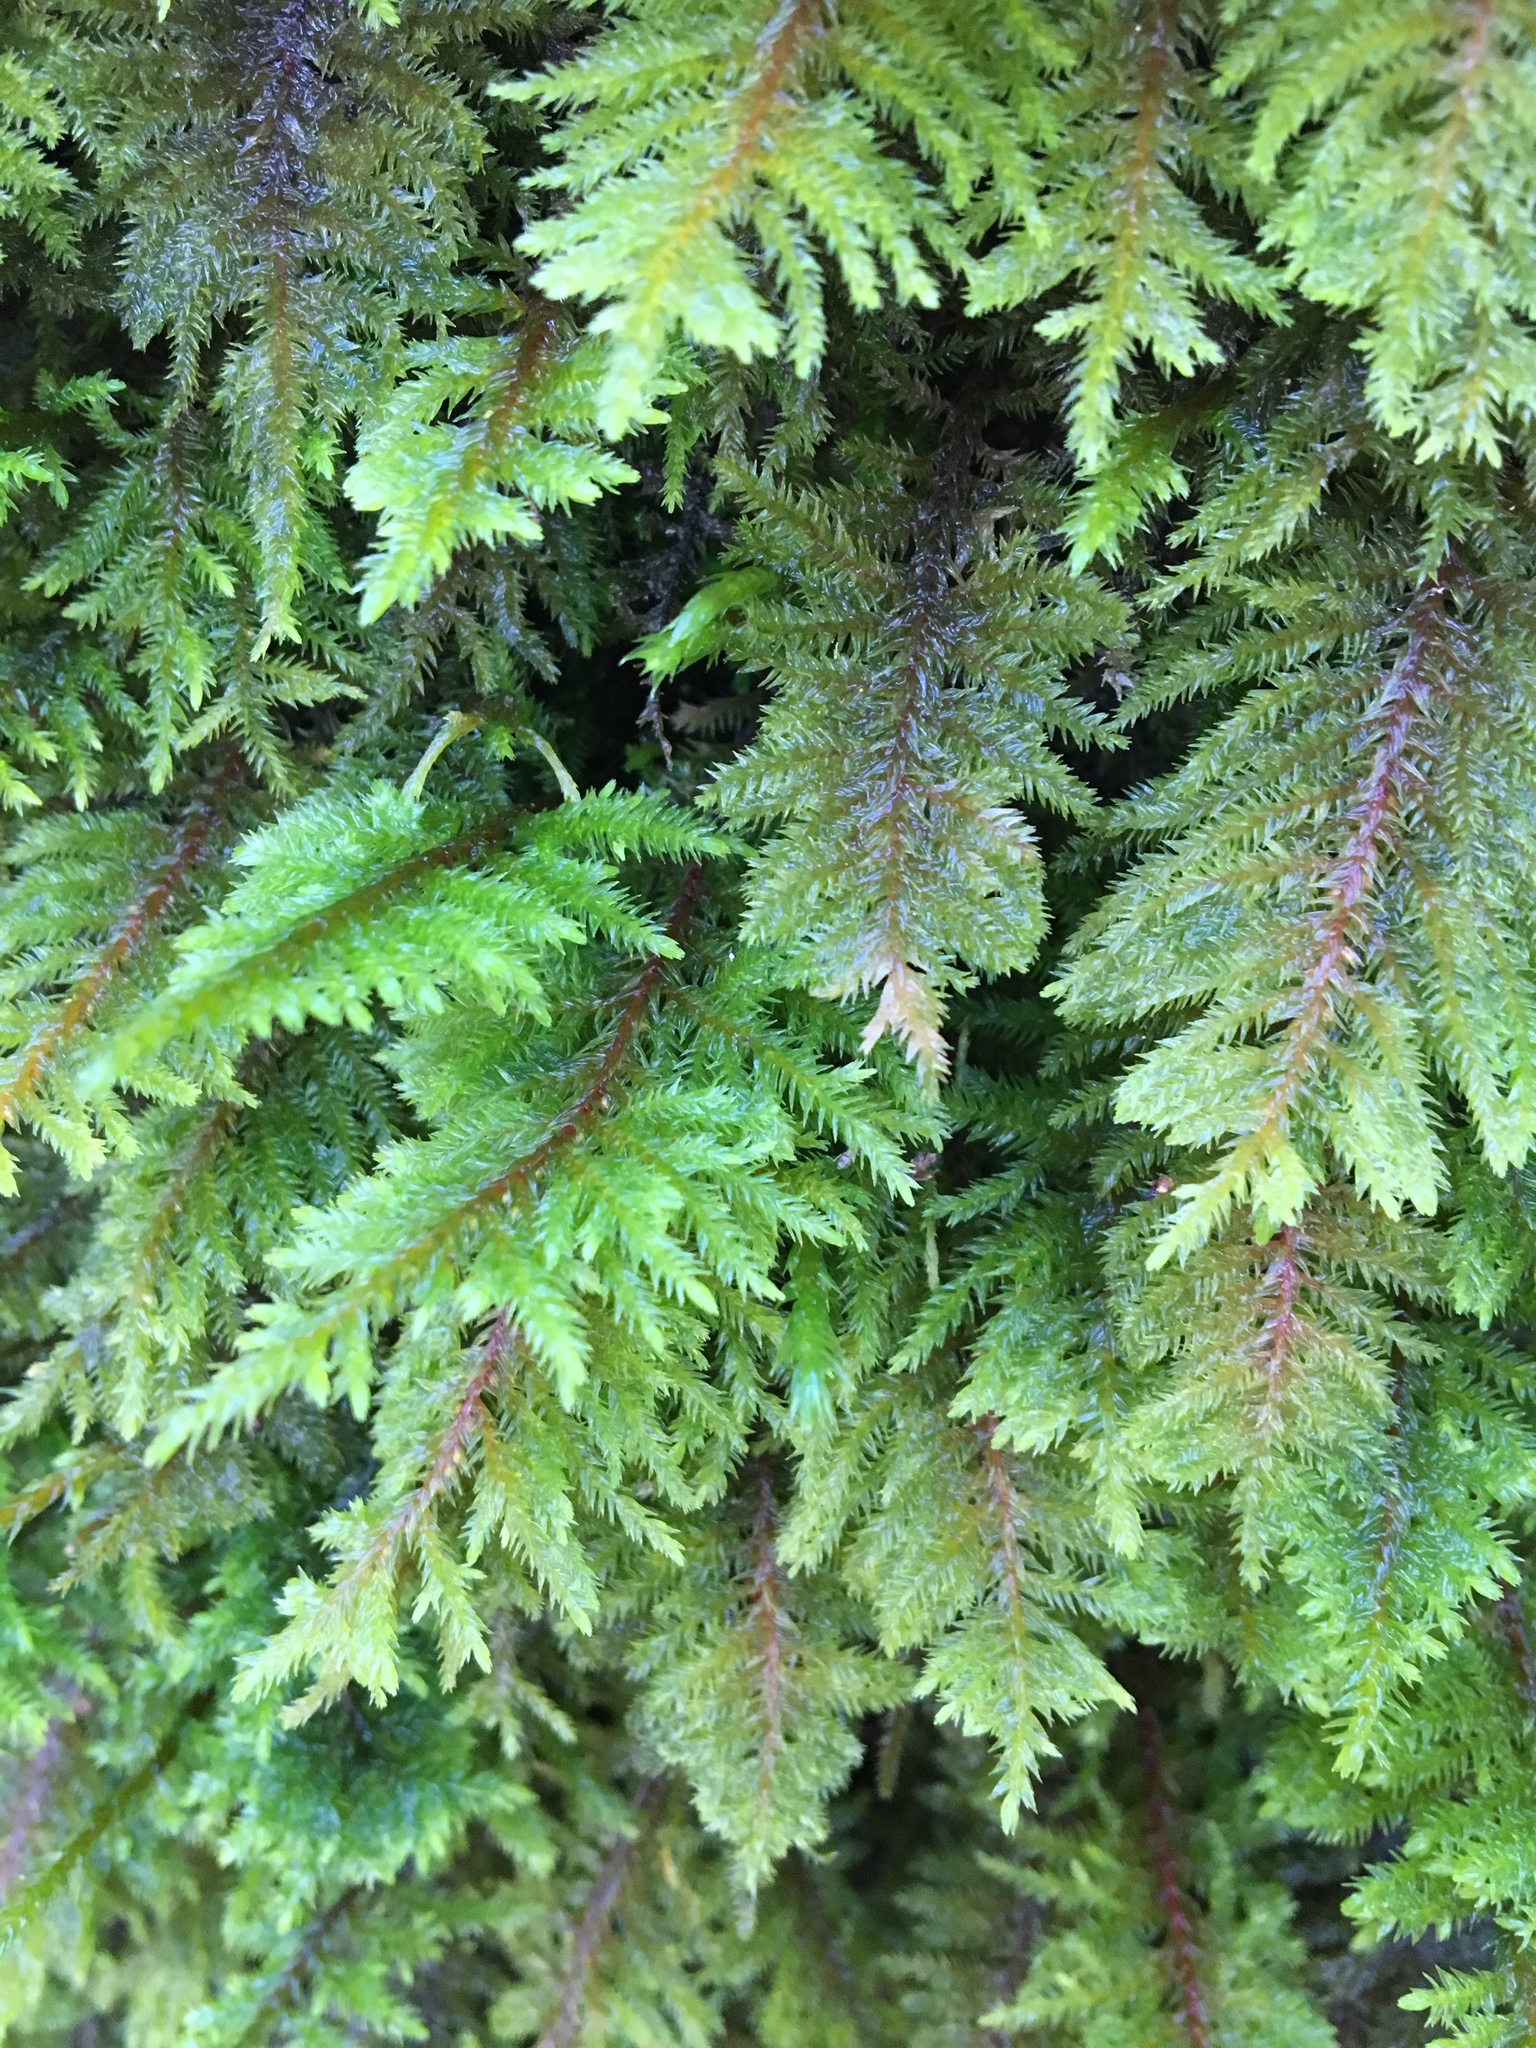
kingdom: Plantae
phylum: Bryophyta
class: Bryopsida
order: Hypnales
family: Cryphaeaceae
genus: Dendroalsia
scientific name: Dendroalsia abietina
